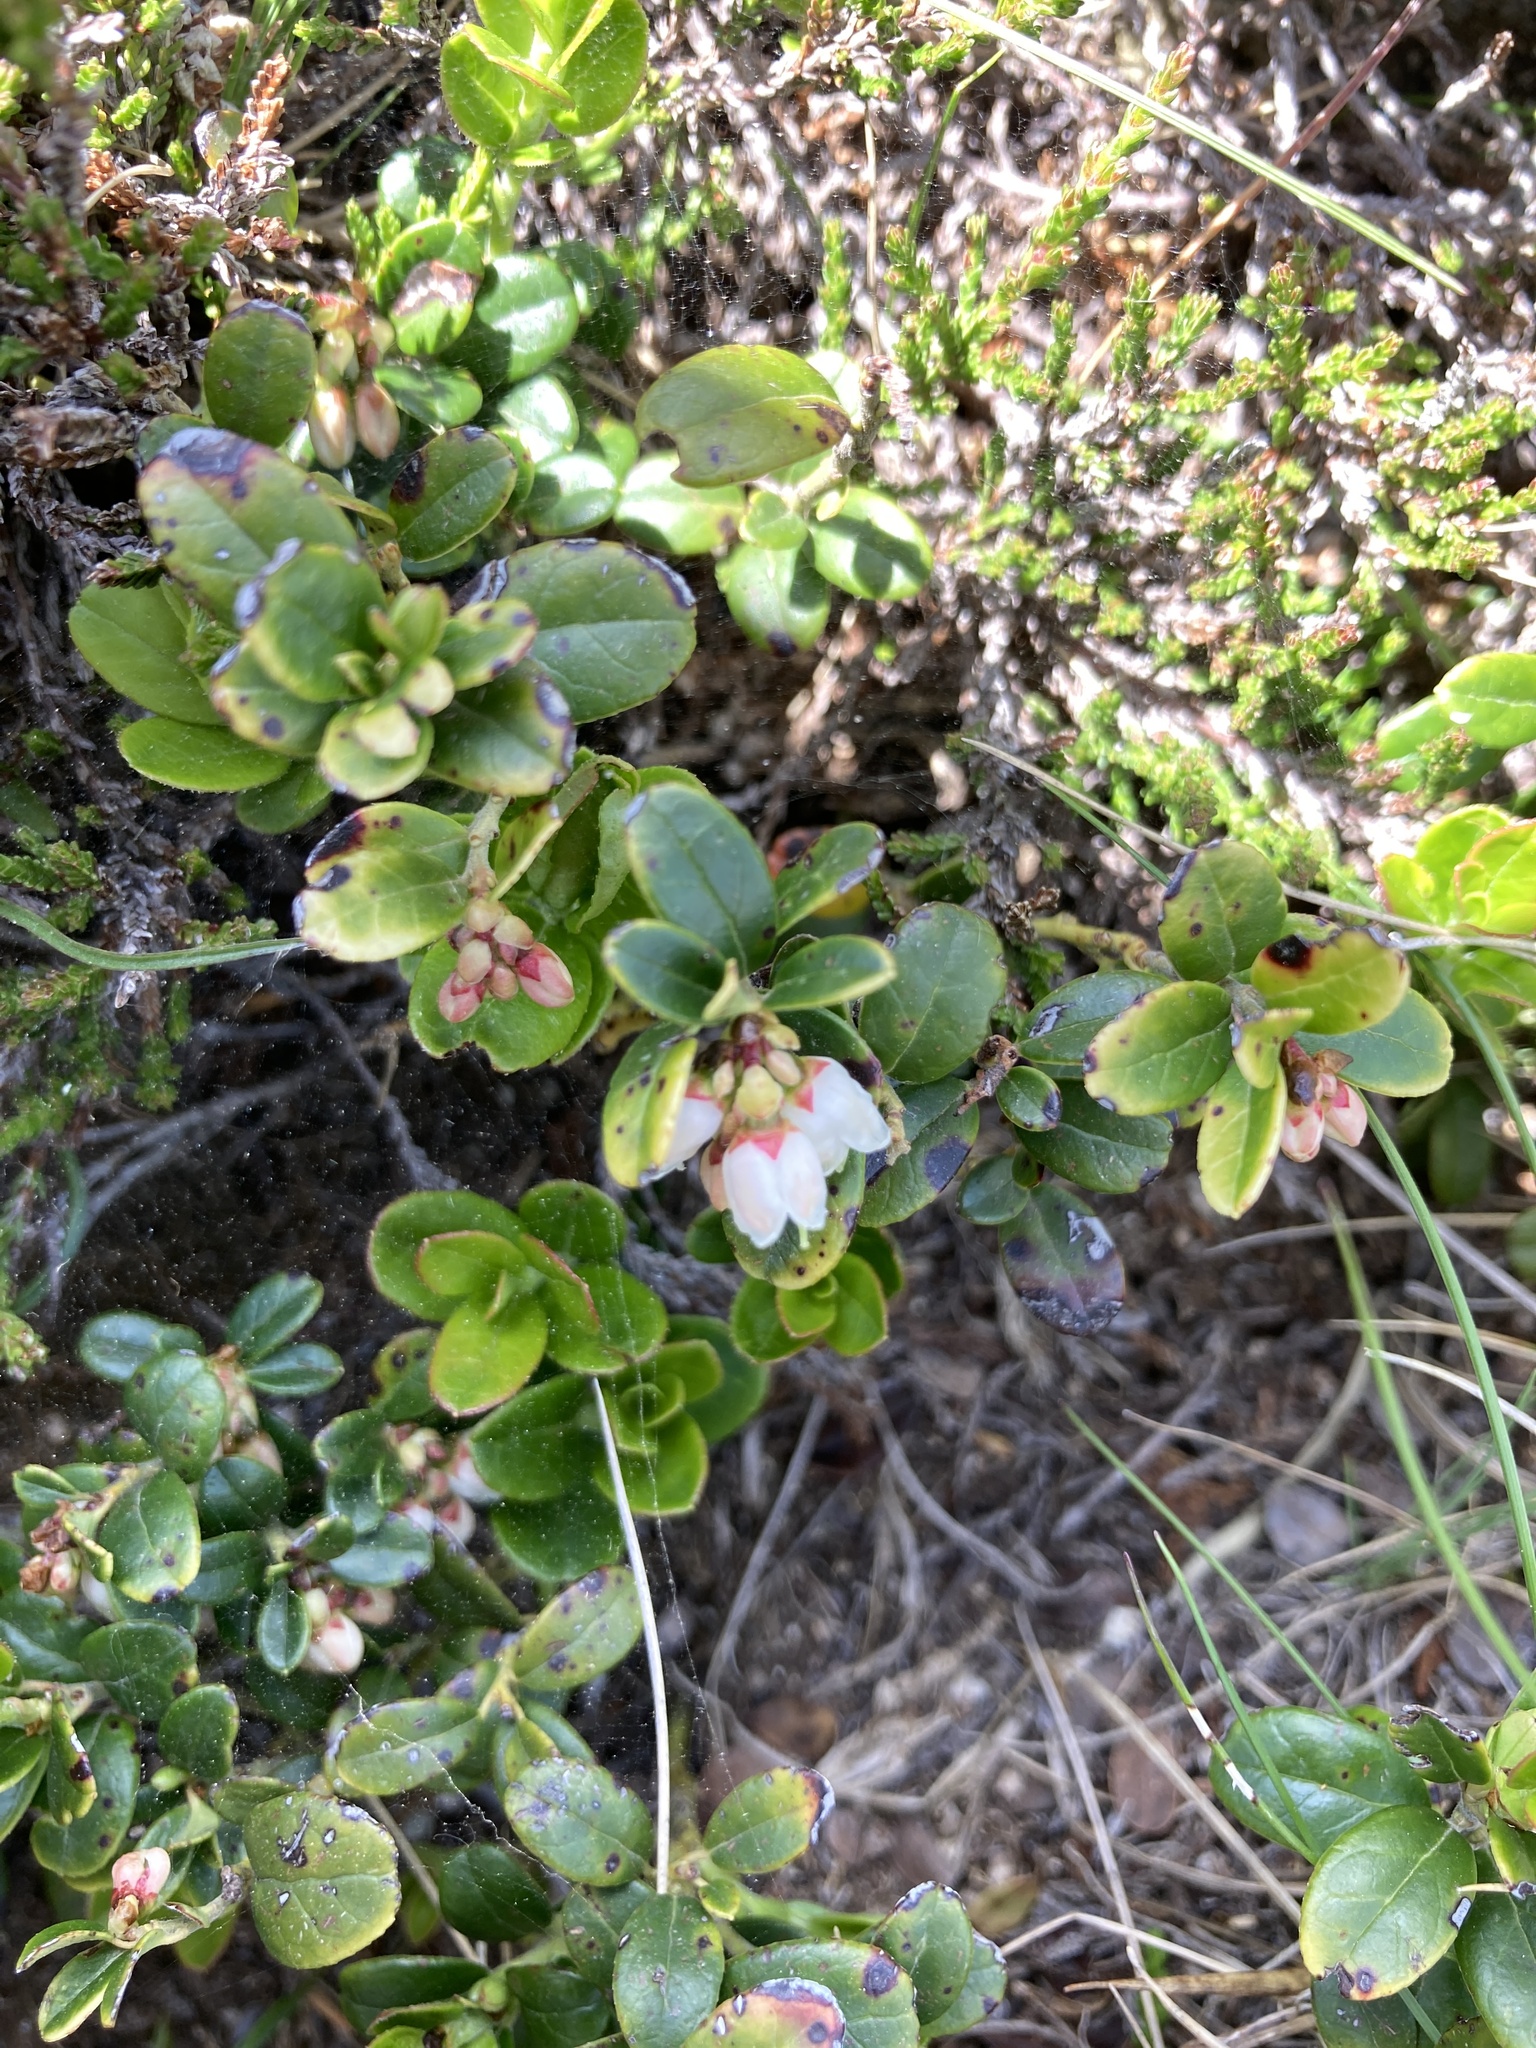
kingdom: Plantae
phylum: Tracheophyta
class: Magnoliopsida
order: Ericales
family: Ericaceae
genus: Vaccinium
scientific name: Vaccinium vitis-idaea
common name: Cowberry
